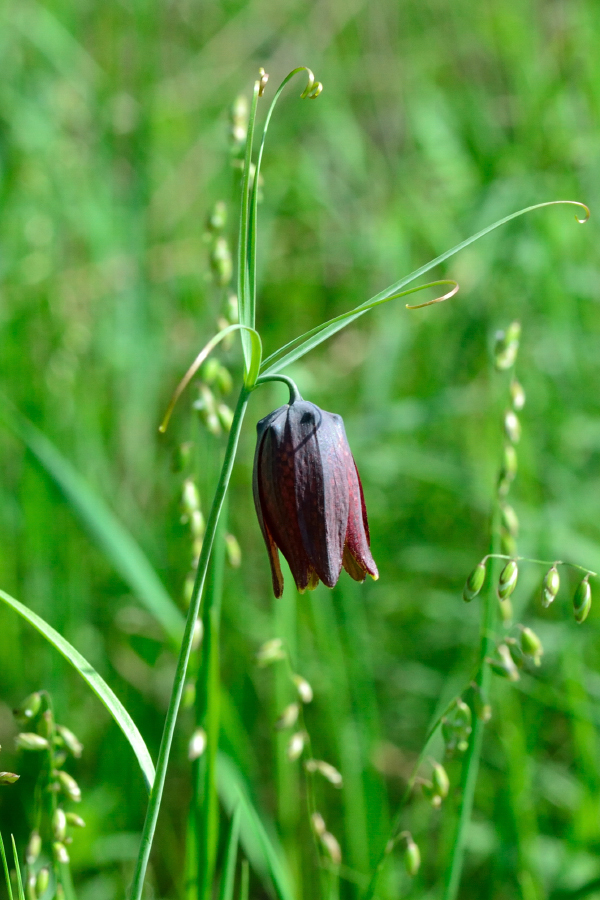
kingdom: Plantae
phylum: Tracheophyta
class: Liliopsida
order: Liliales
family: Liliaceae
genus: Fritillaria
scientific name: Fritillaria ruthenica
